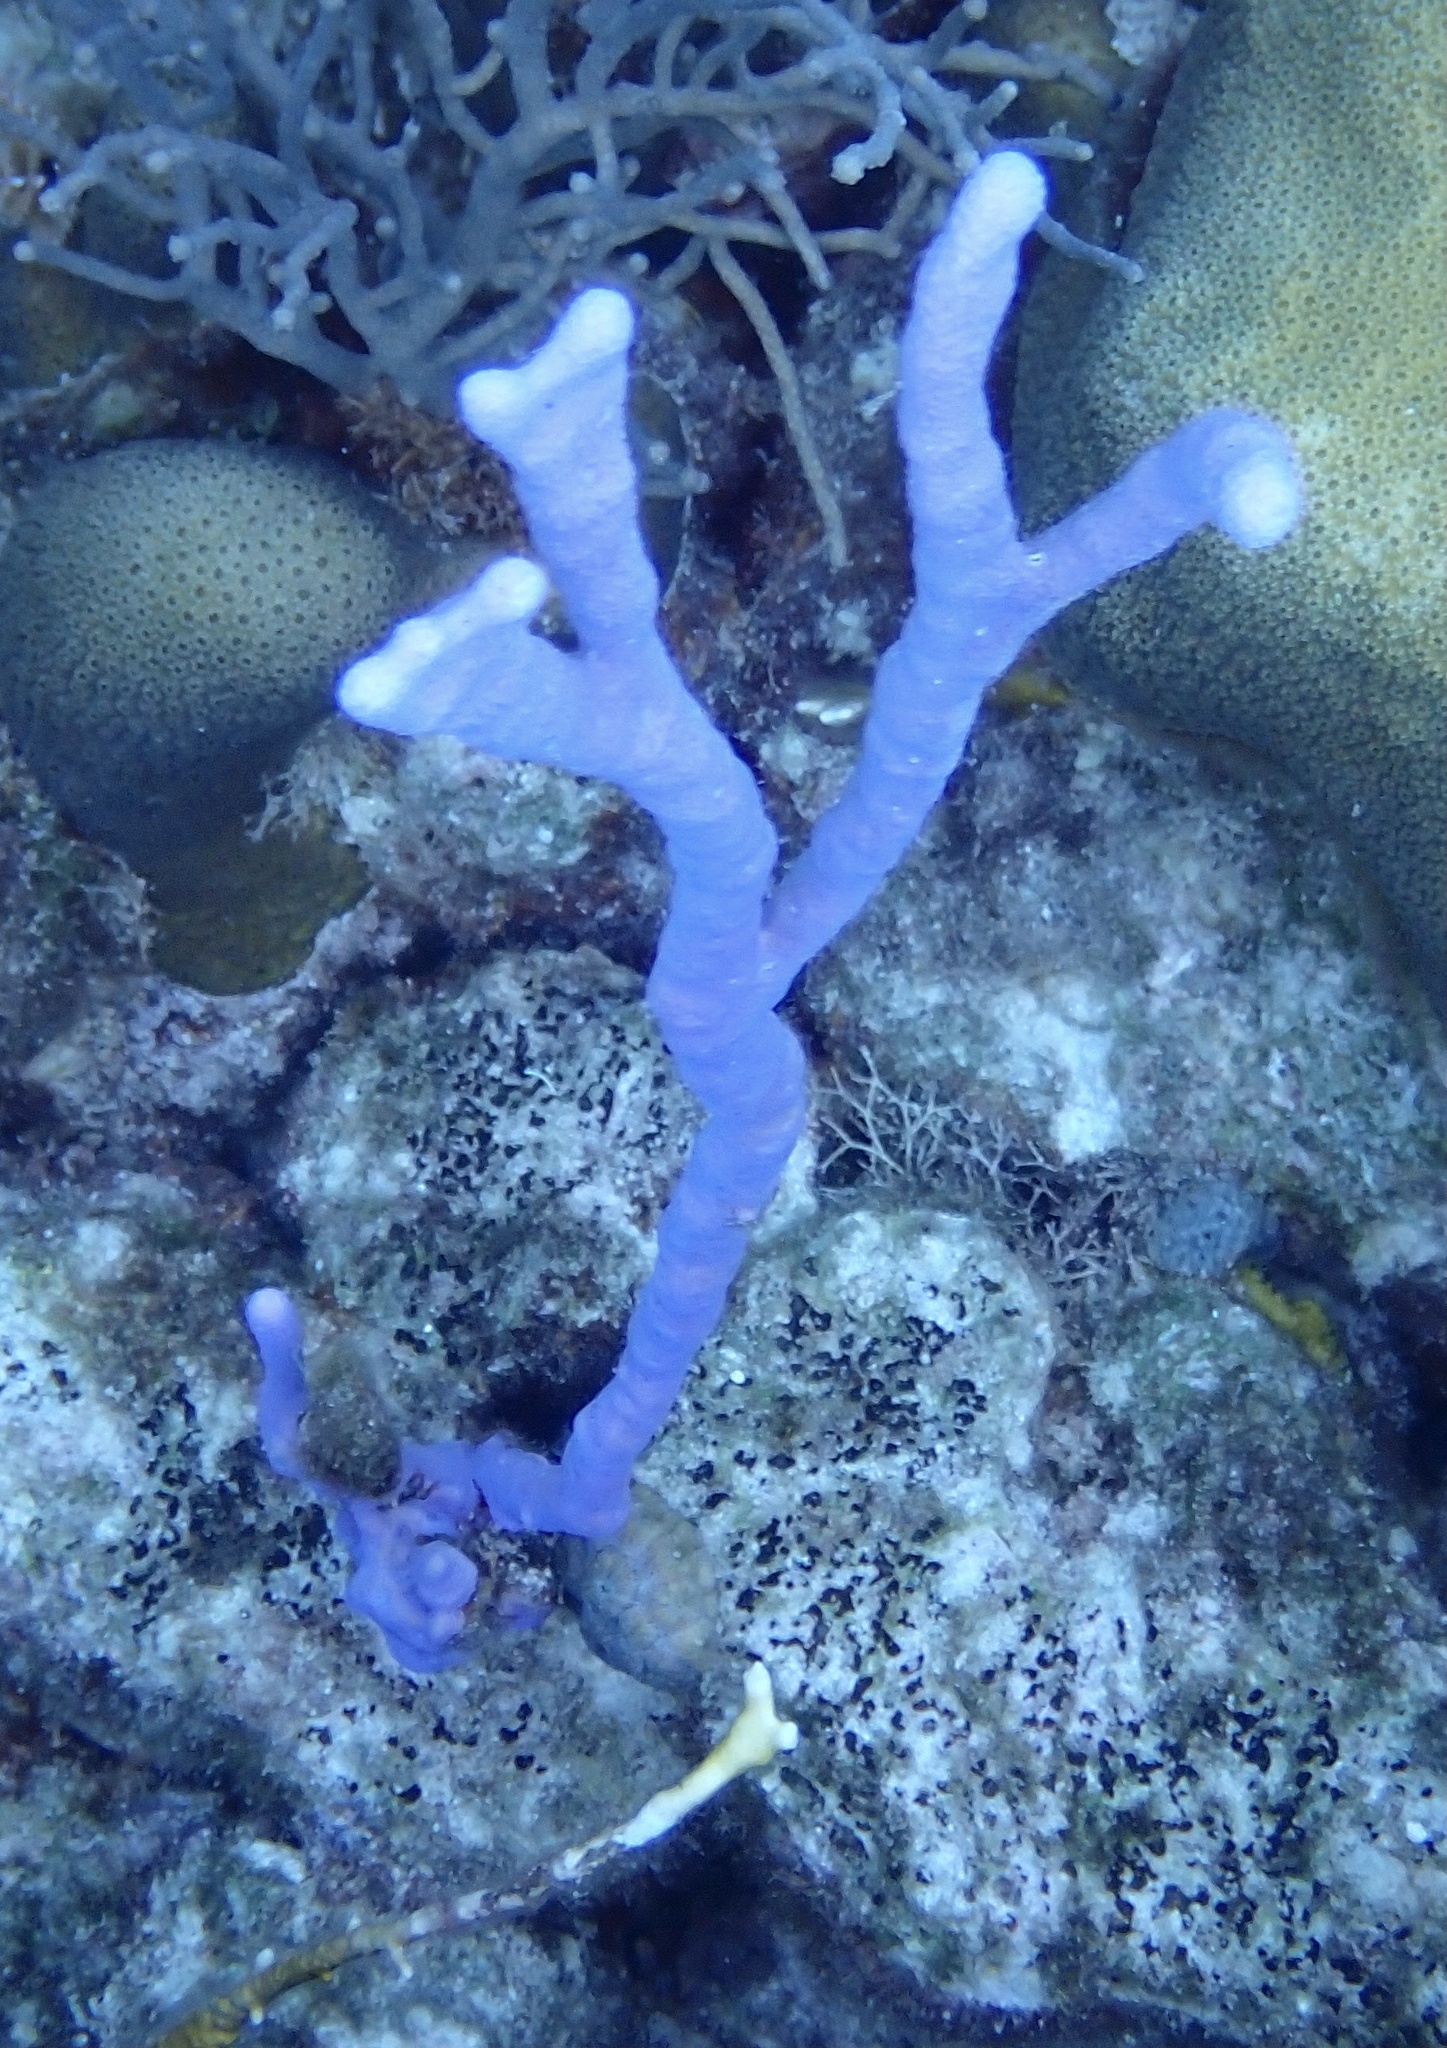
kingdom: Animalia
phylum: Porifera
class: Demospongiae
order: Verongiida
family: Aplysinidae
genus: Aplysina
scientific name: Aplysina cauliformis
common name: Branching candle sponge
